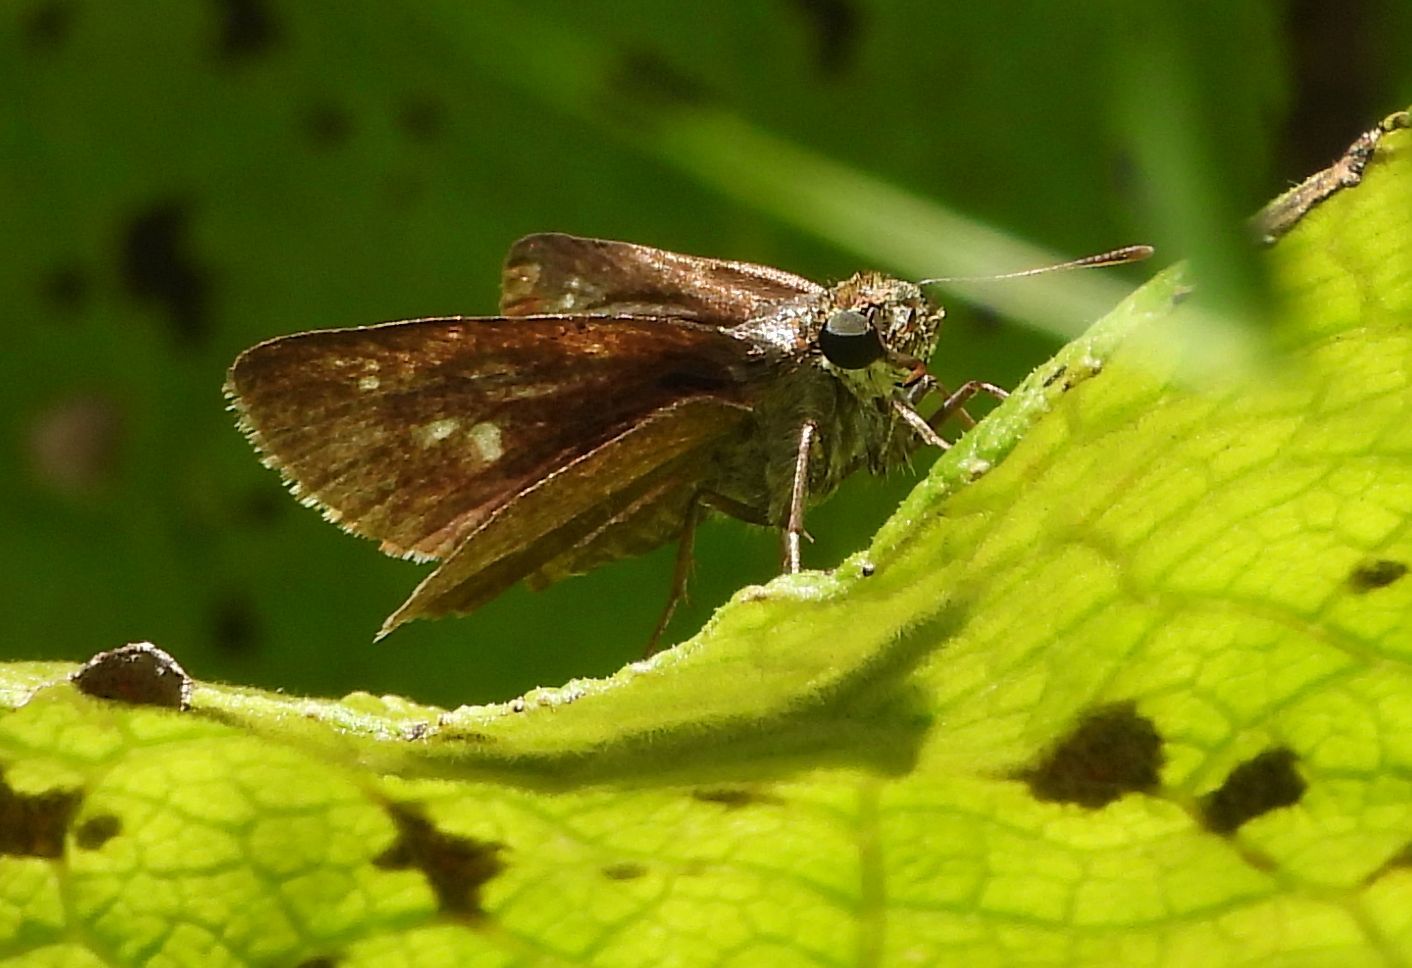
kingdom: Animalia
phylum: Arthropoda
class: Insecta
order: Lepidoptera
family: Hesperiidae
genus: Euphyes
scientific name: Euphyes vestris
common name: Dun skipper
